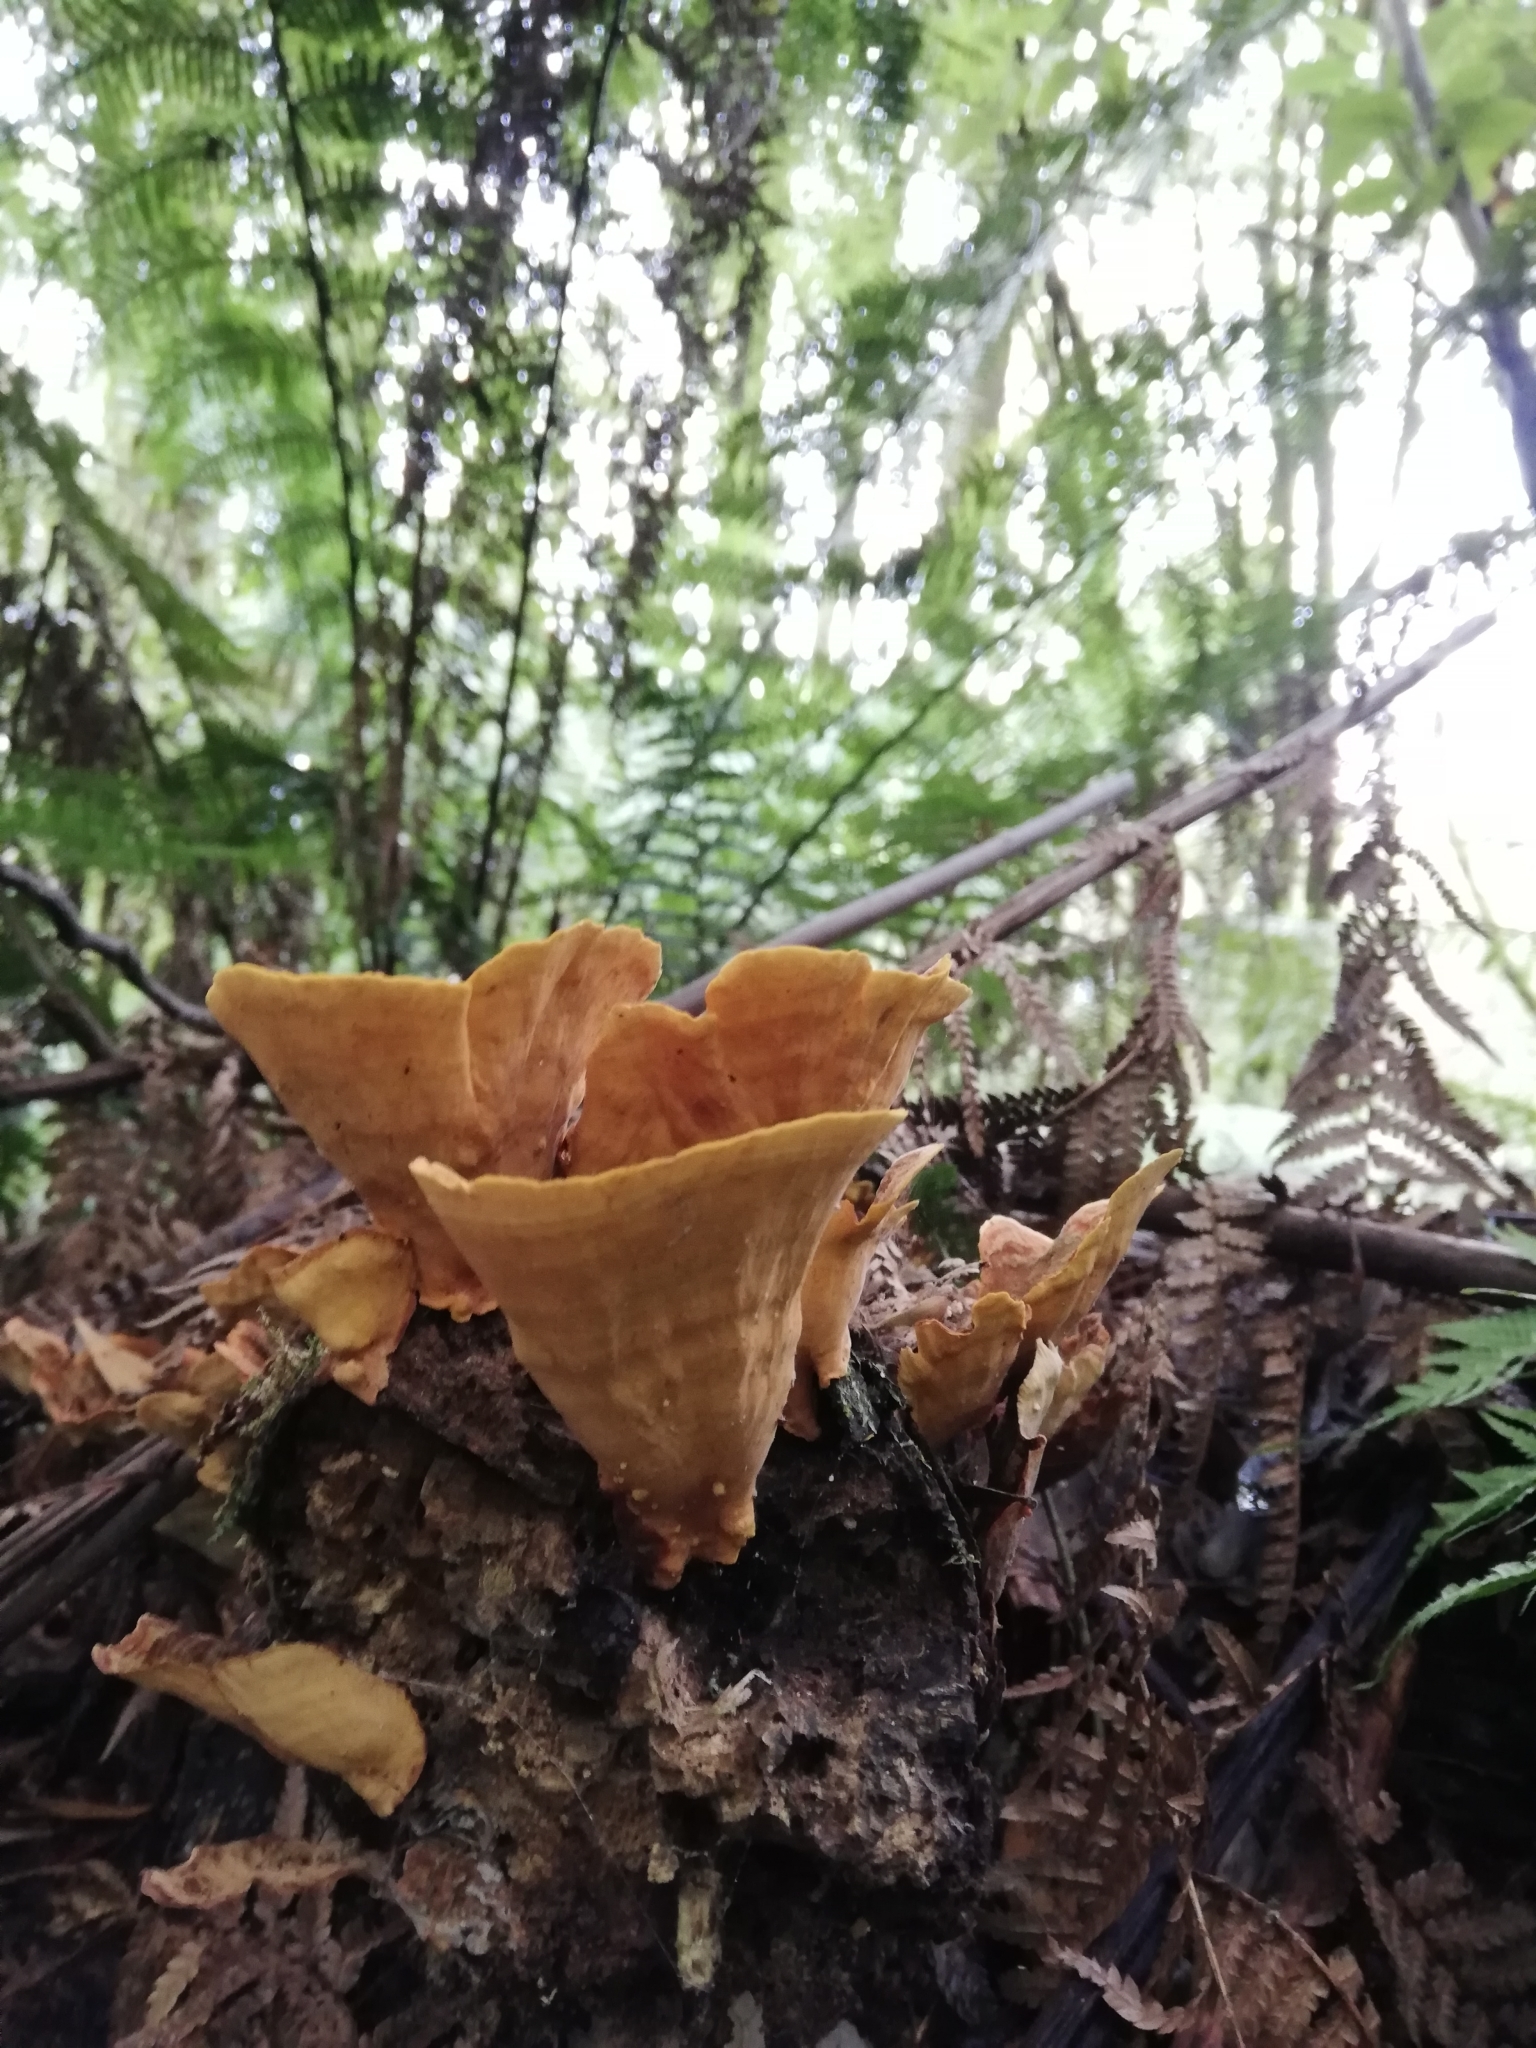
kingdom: Fungi
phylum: Basidiomycota
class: Agaricomycetes
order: Russulales
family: Stereaceae
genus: Stereum
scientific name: Stereum versicolor
